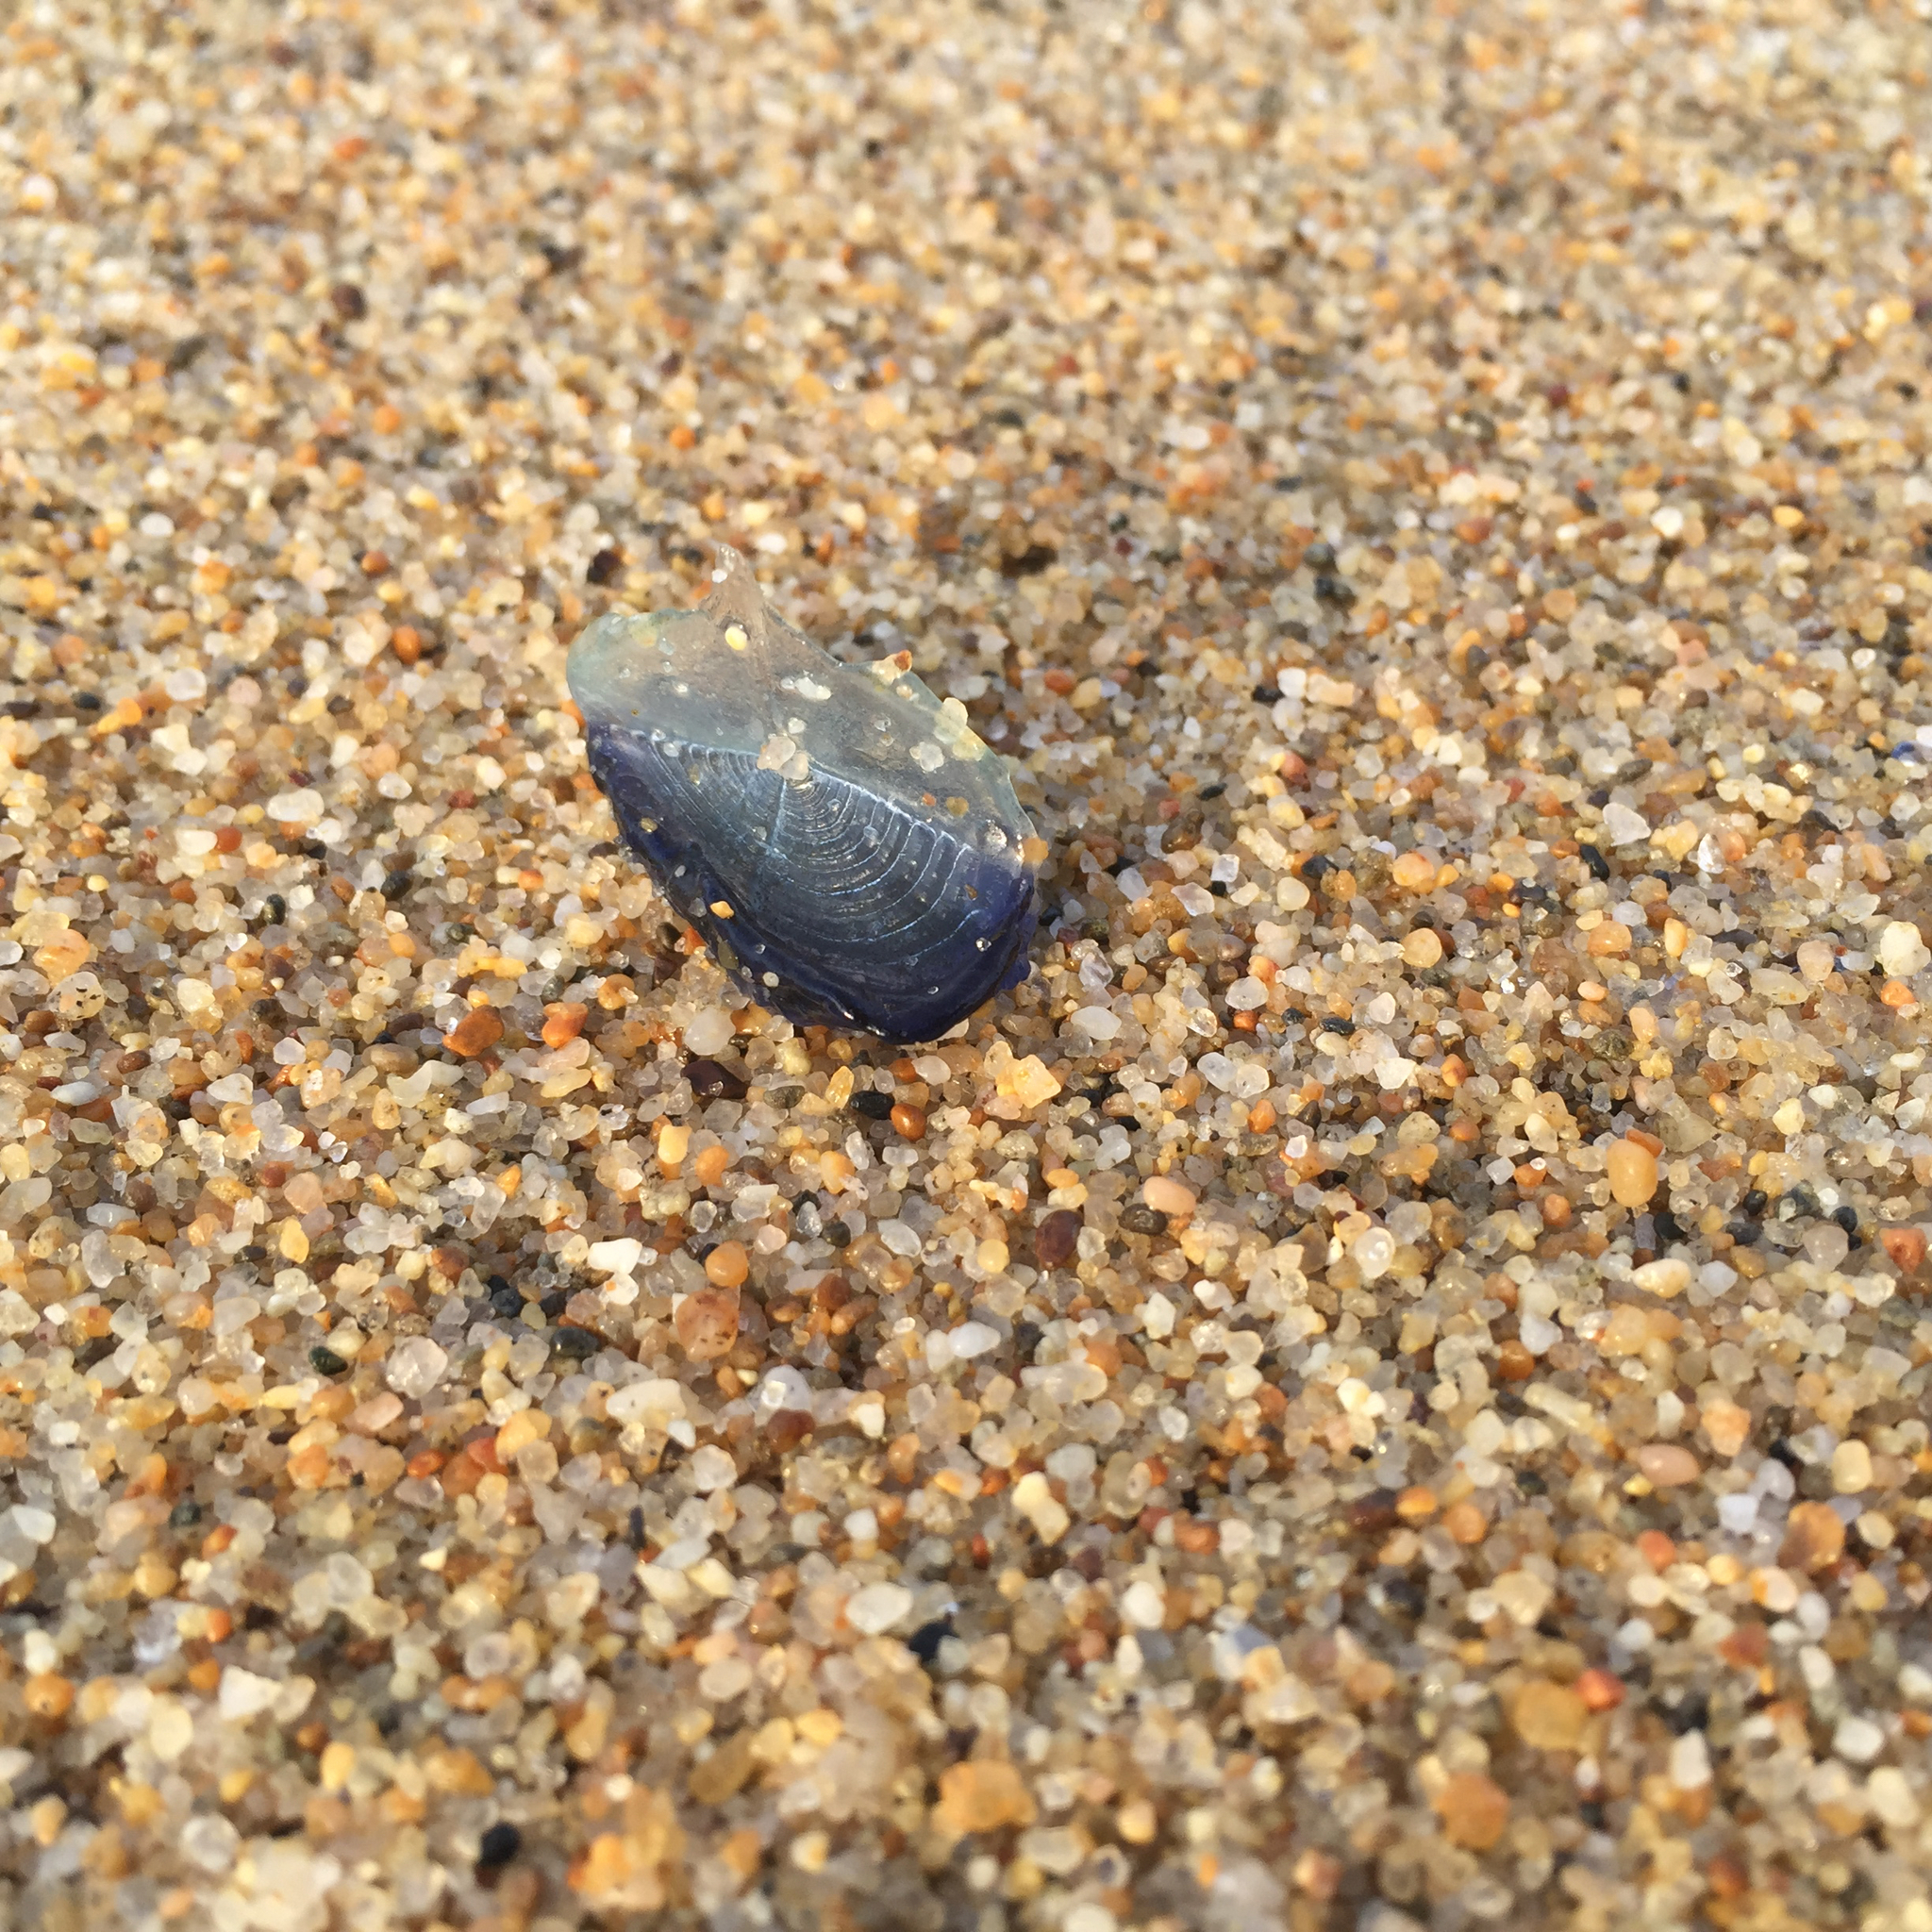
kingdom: Animalia
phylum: Cnidaria
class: Hydrozoa
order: Anthoathecata
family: Porpitidae
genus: Velella
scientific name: Velella velella
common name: By-the-wind-sailor
